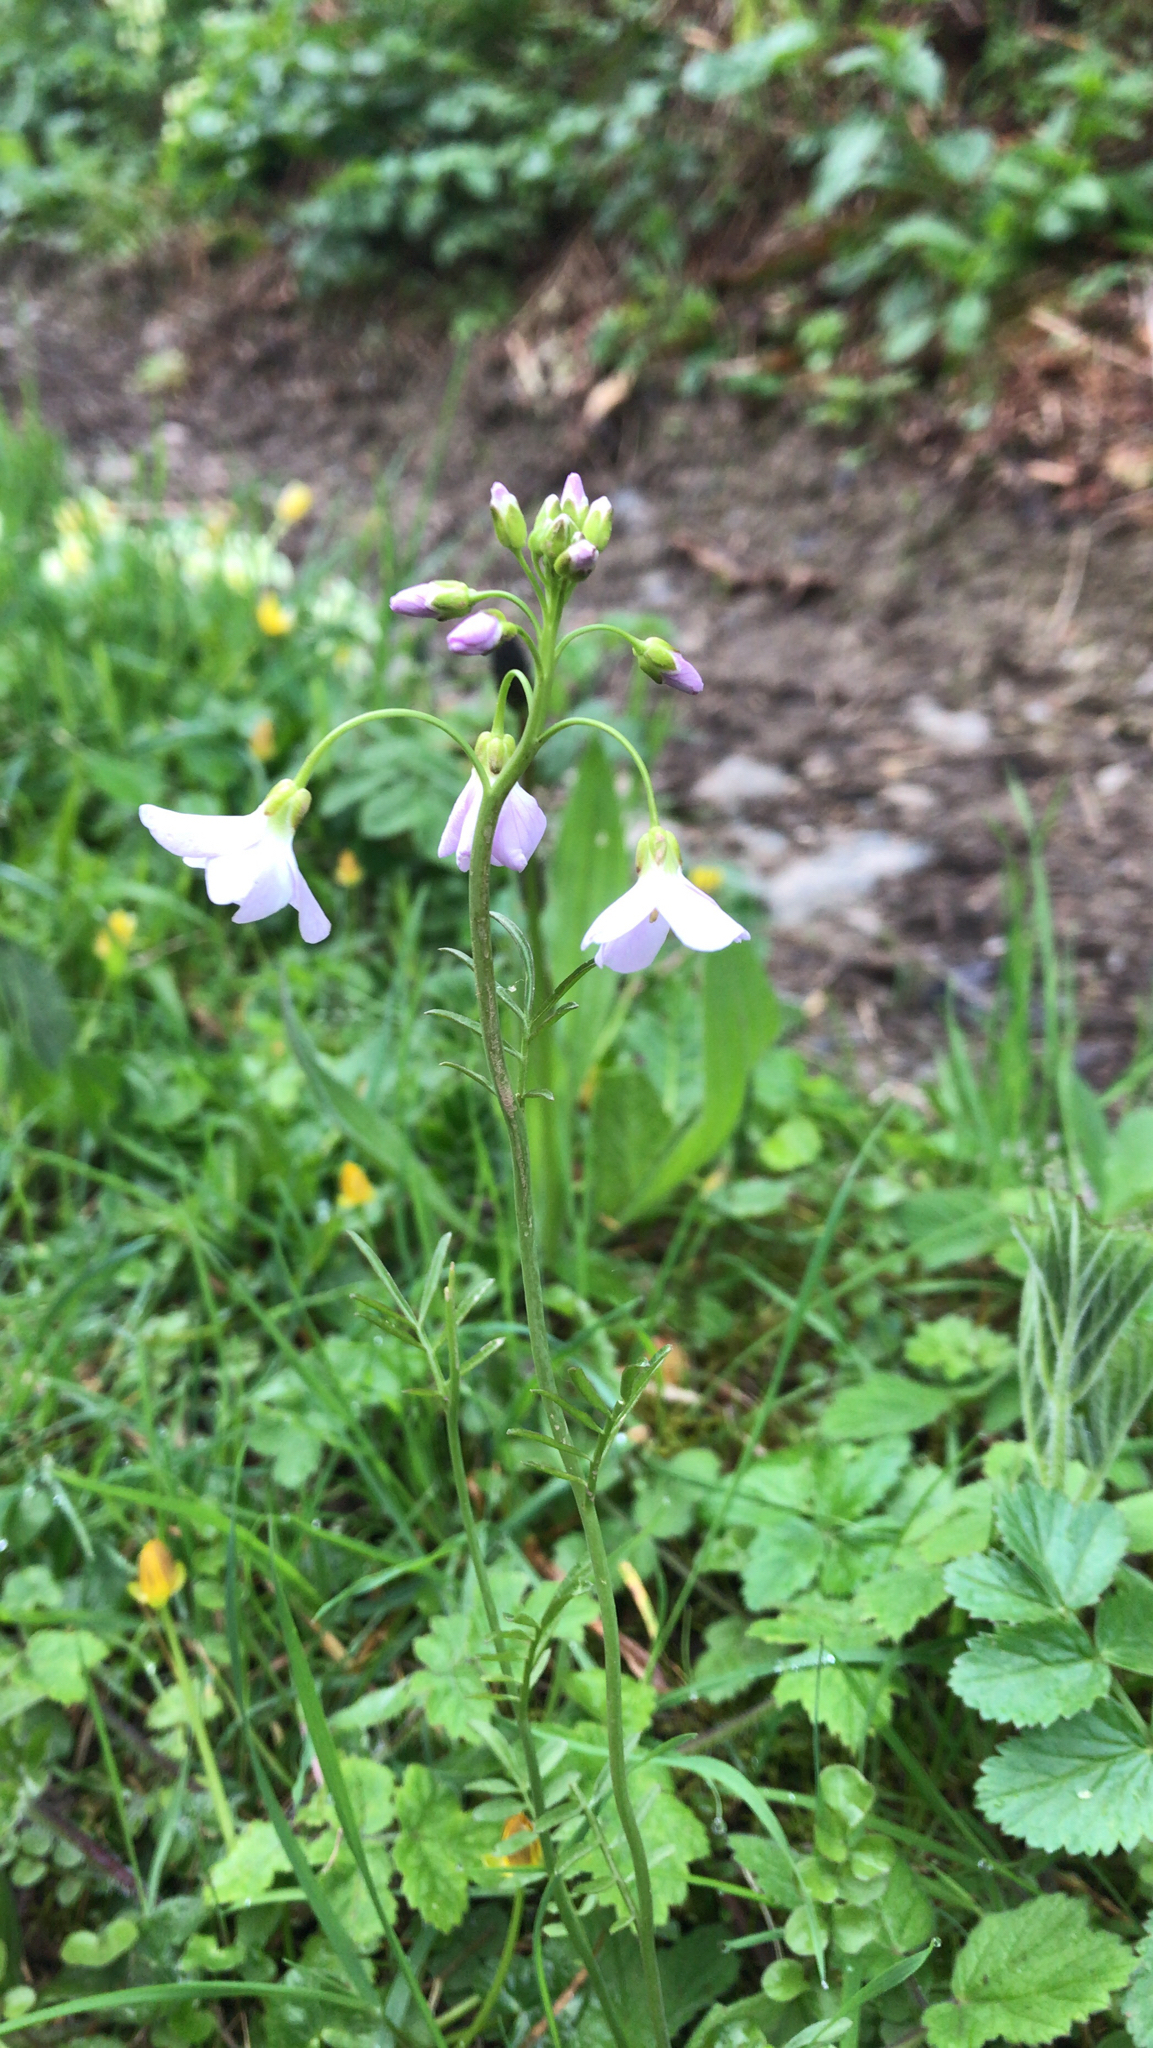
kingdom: Plantae
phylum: Tracheophyta
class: Magnoliopsida
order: Brassicales
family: Brassicaceae
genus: Cardamine
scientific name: Cardamine pratensis
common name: Cuckoo flower
